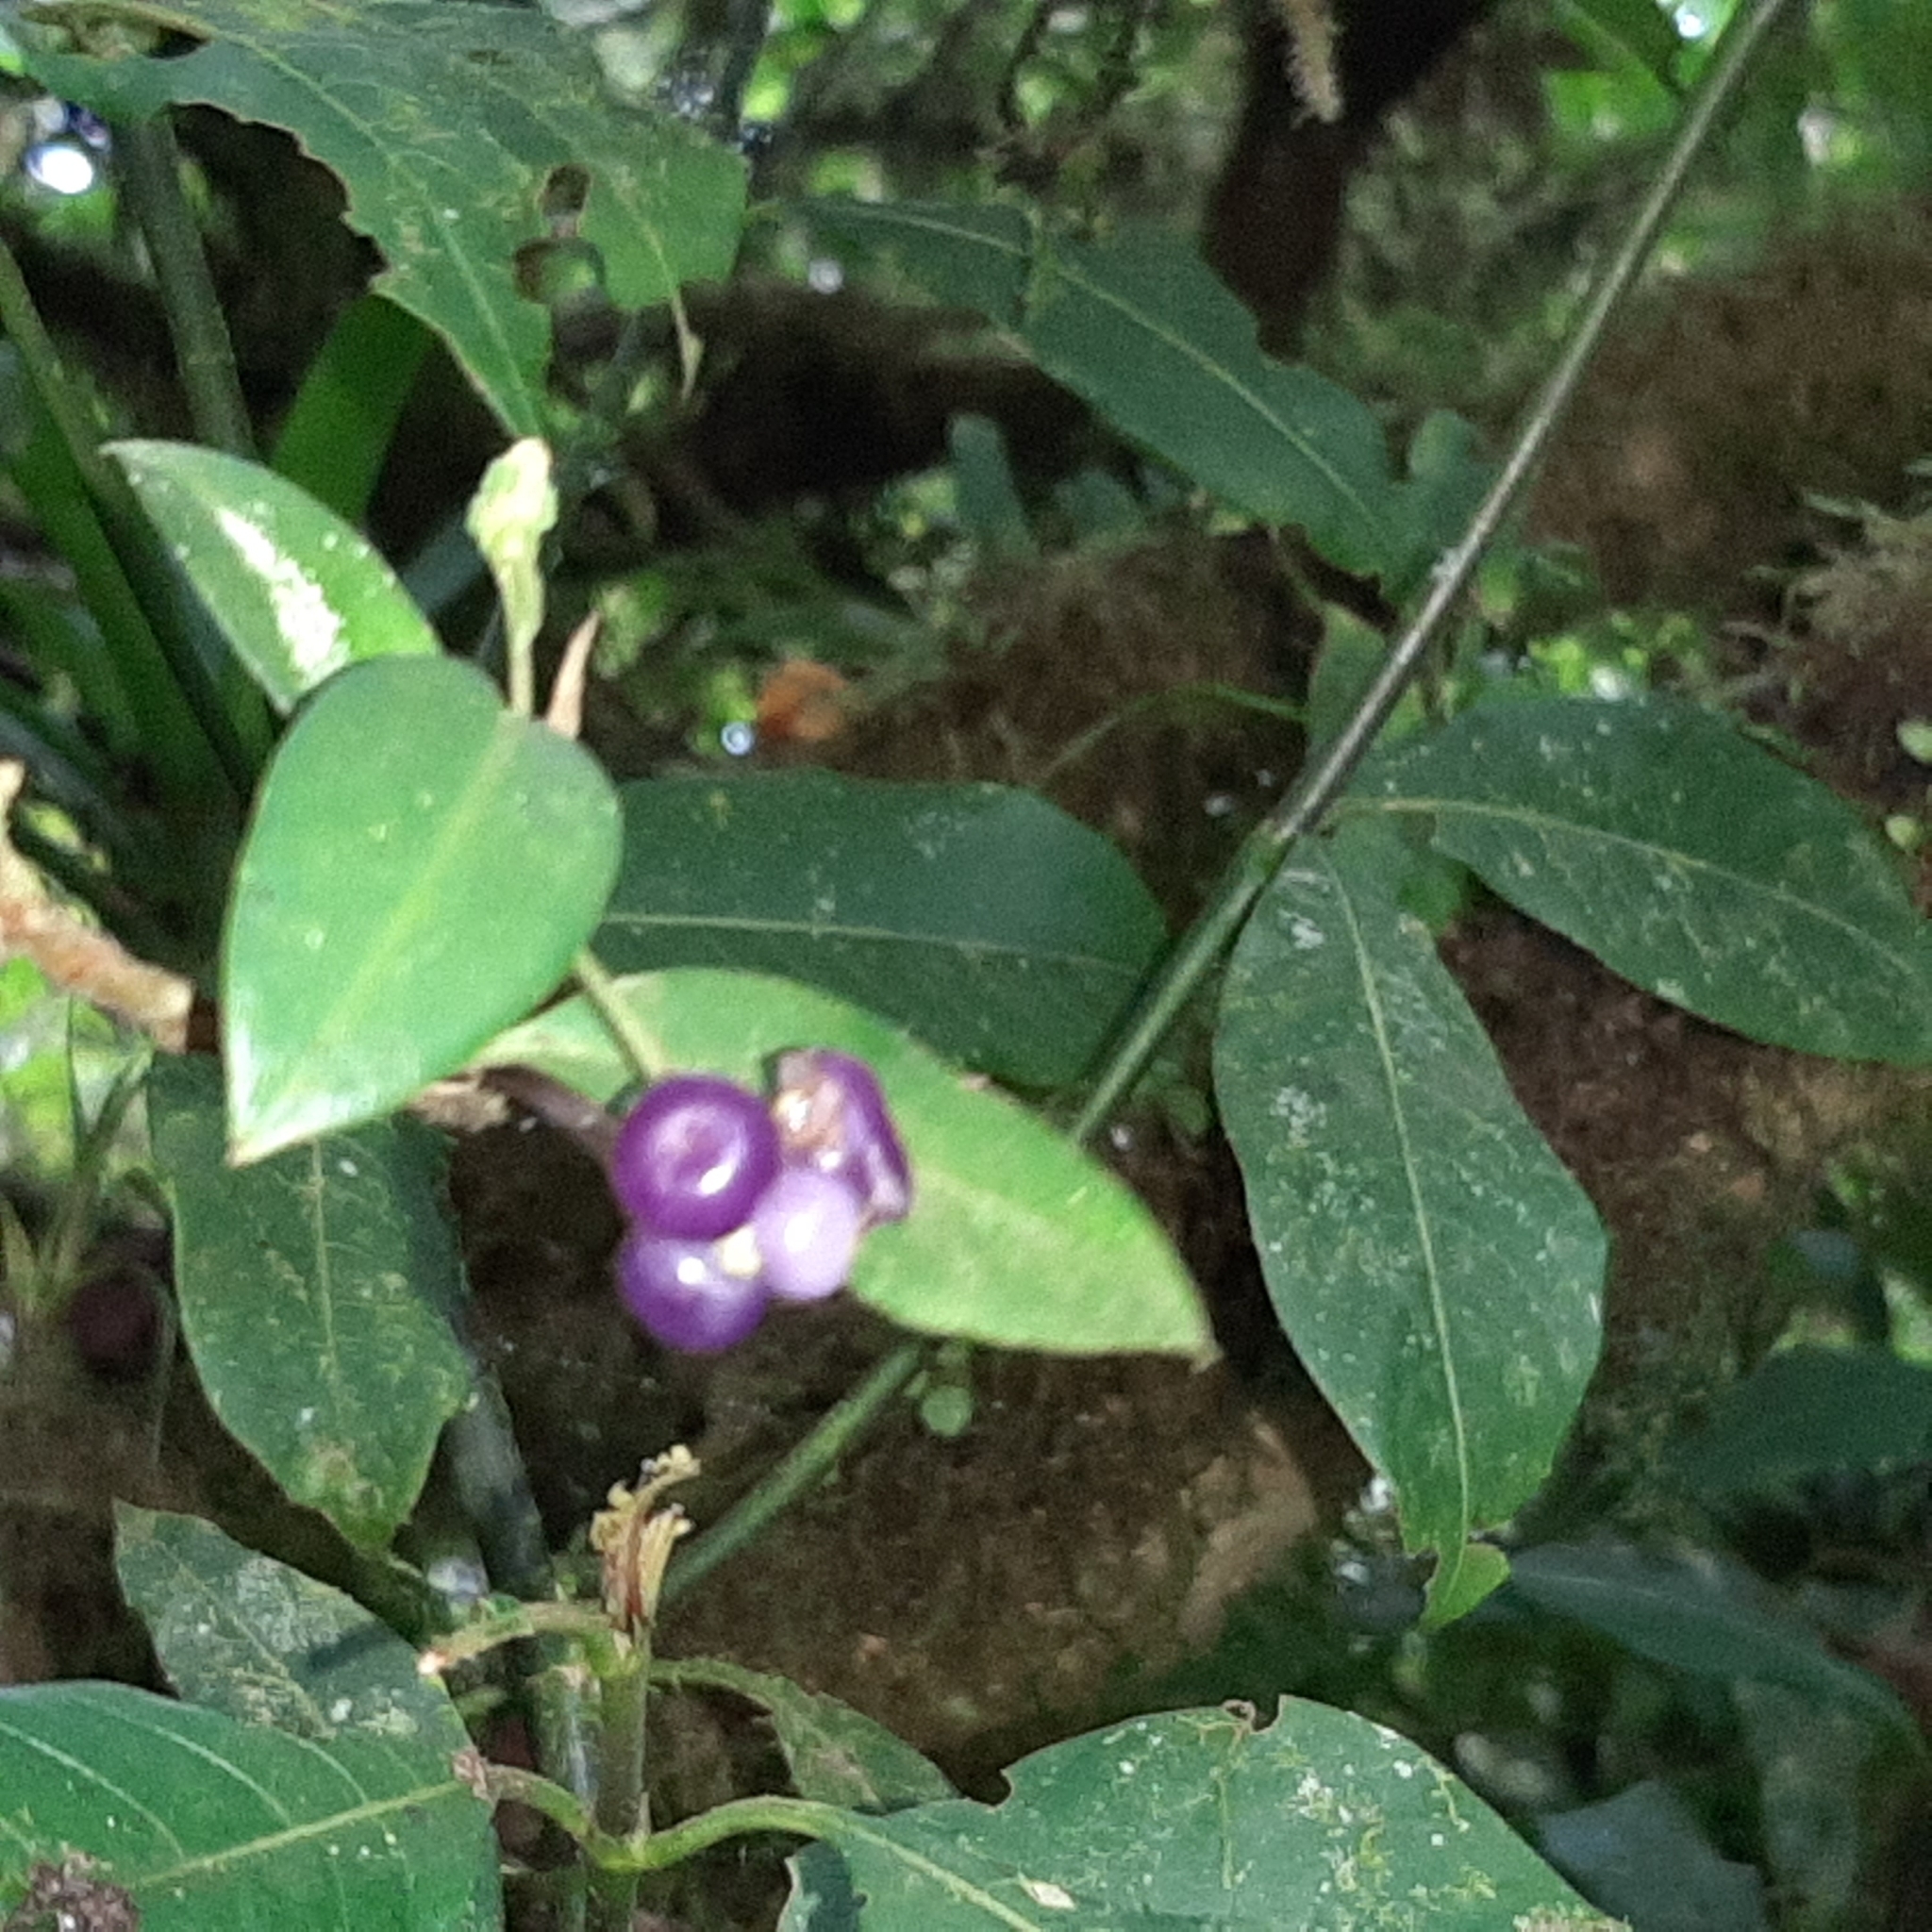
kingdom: Plantae
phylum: Tracheophyta
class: Liliopsida
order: Alismatales
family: Araceae
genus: Anthurium
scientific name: Anthurium scandens
